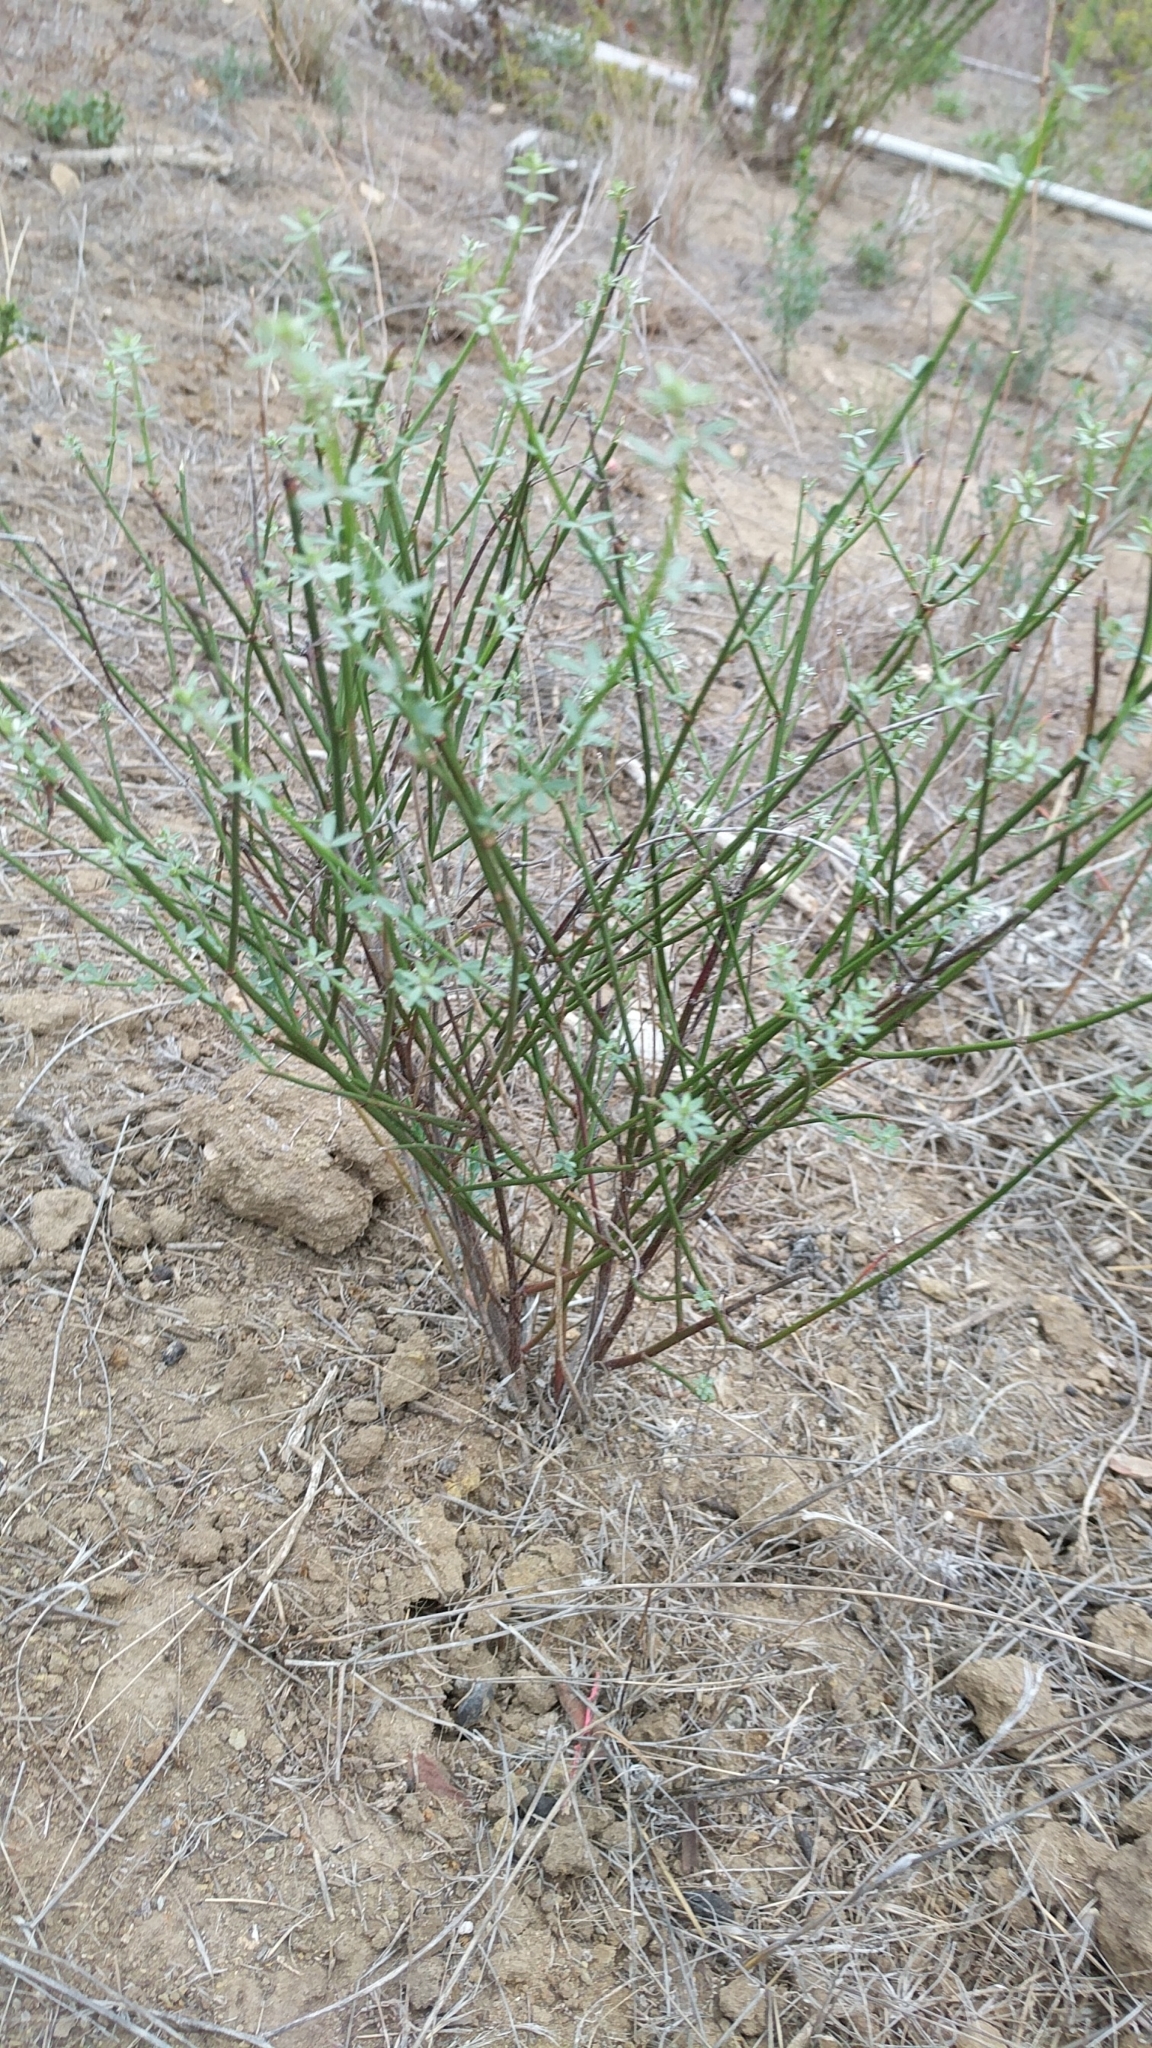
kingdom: Plantae
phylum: Tracheophyta
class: Magnoliopsida
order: Fabales
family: Fabaceae
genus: Acmispon
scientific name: Acmispon glaber
